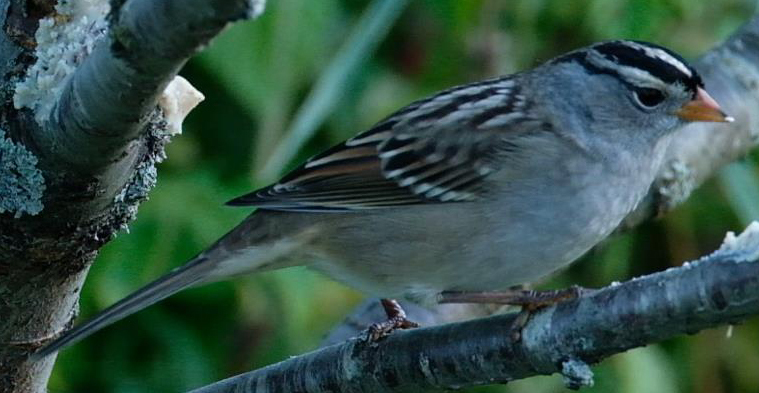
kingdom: Animalia
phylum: Chordata
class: Aves
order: Passeriformes
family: Passerellidae
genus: Zonotrichia
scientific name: Zonotrichia leucophrys
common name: White-crowned sparrow
